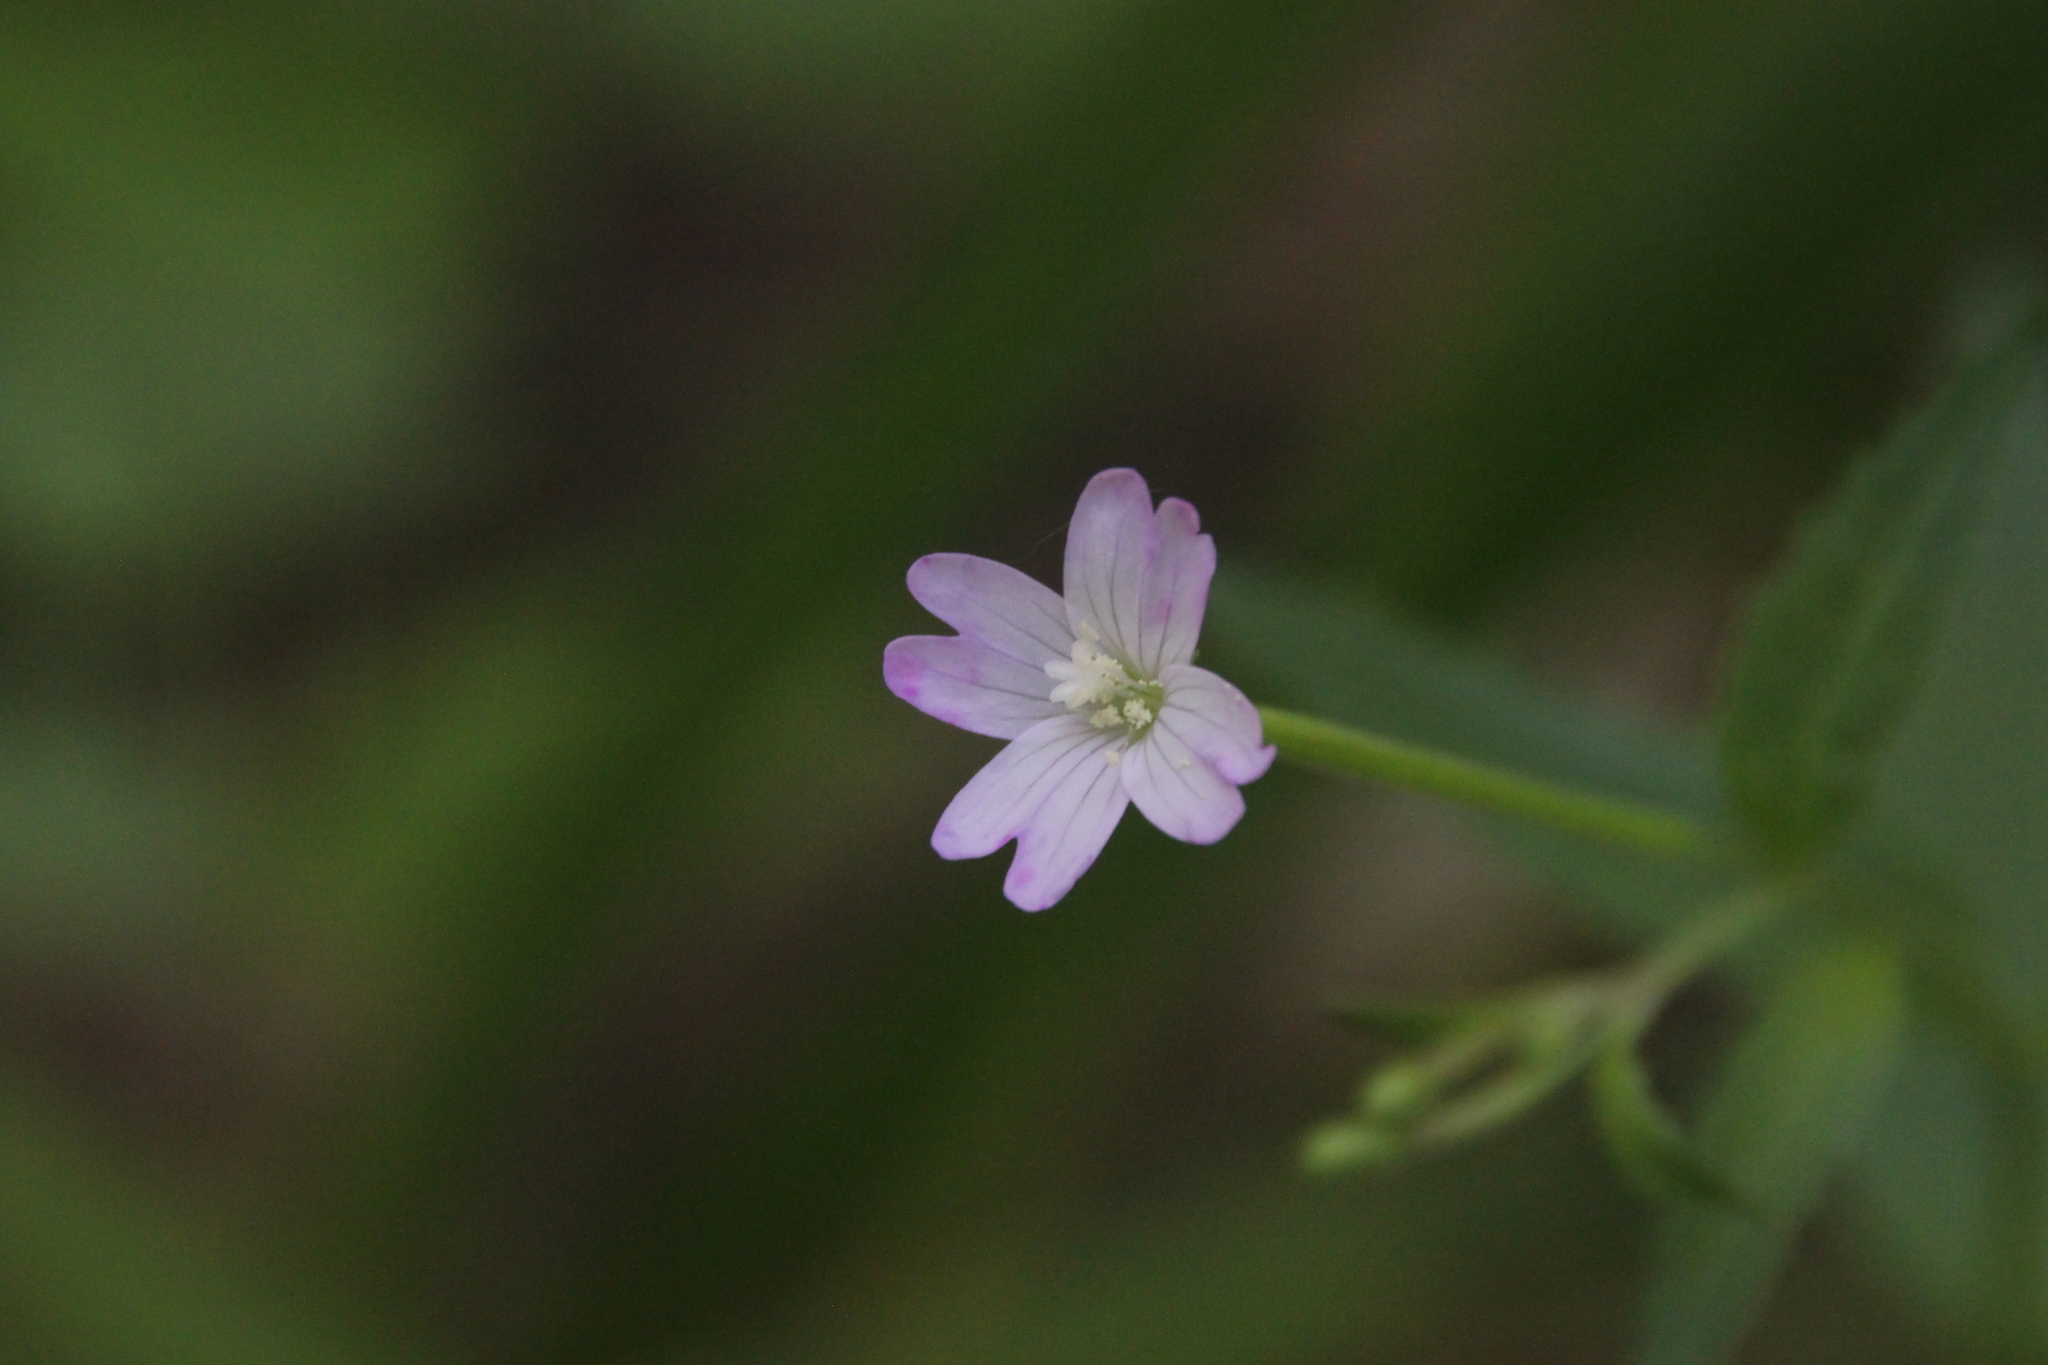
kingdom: Plantae
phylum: Tracheophyta
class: Magnoliopsida
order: Myrtales
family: Onagraceae
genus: Epilobium
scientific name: Epilobium montanum
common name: Broad-leaved willowherb
